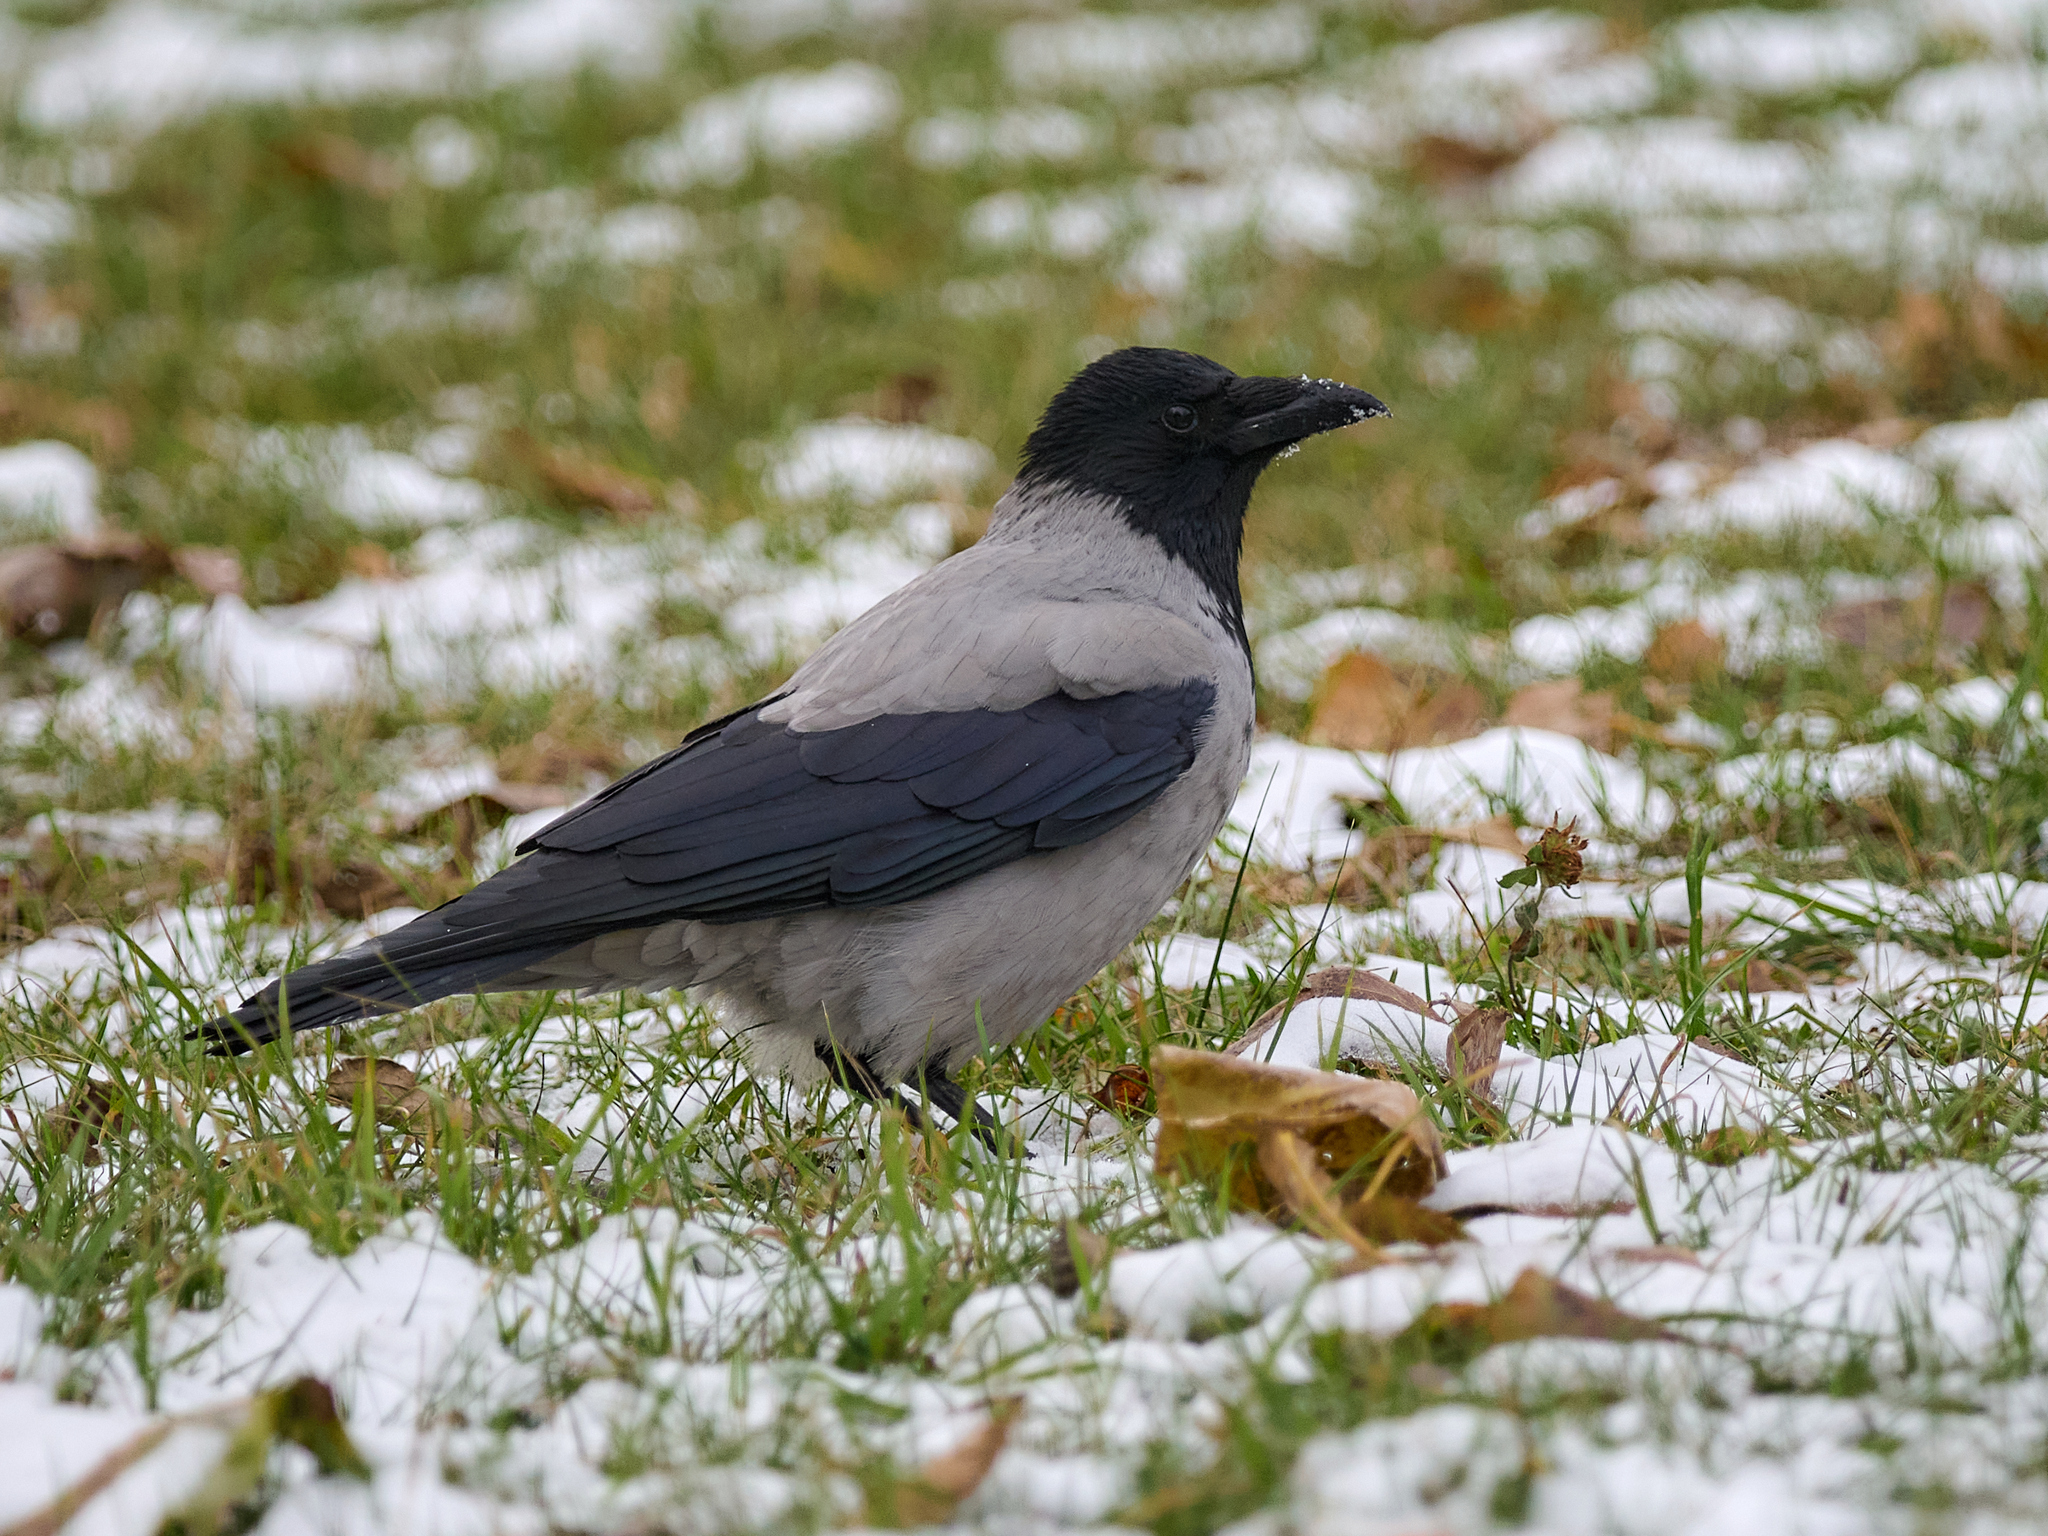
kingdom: Animalia
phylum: Chordata
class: Aves
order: Passeriformes
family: Corvidae
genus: Corvus
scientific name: Corvus cornix
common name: Hooded crow
